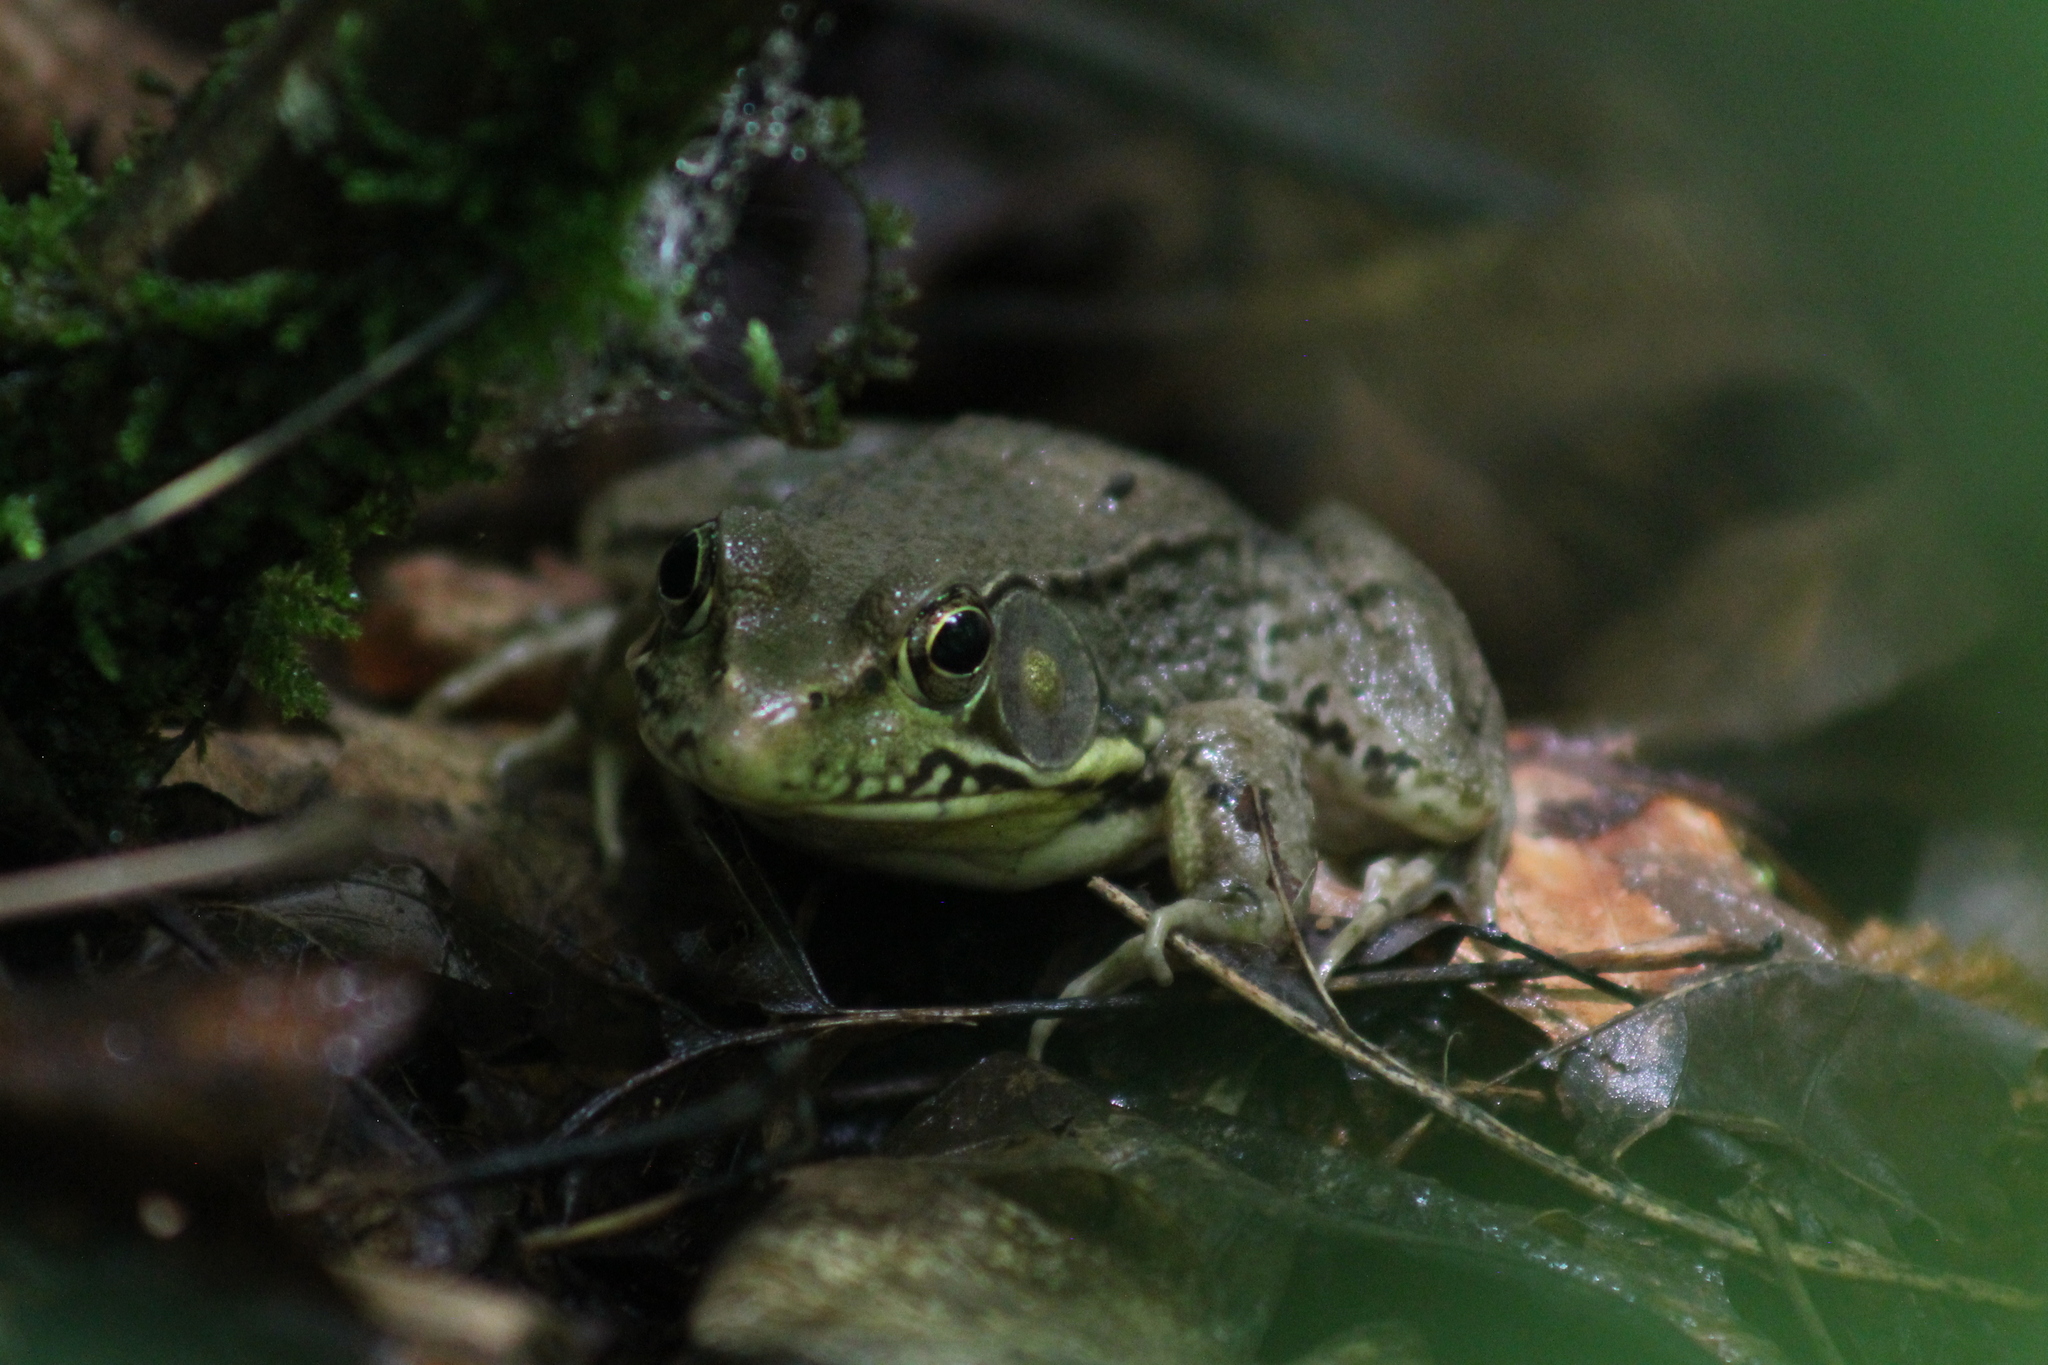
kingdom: Animalia
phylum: Chordata
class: Amphibia
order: Anura
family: Ranidae
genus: Lithobates
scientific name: Lithobates clamitans
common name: Green frog
